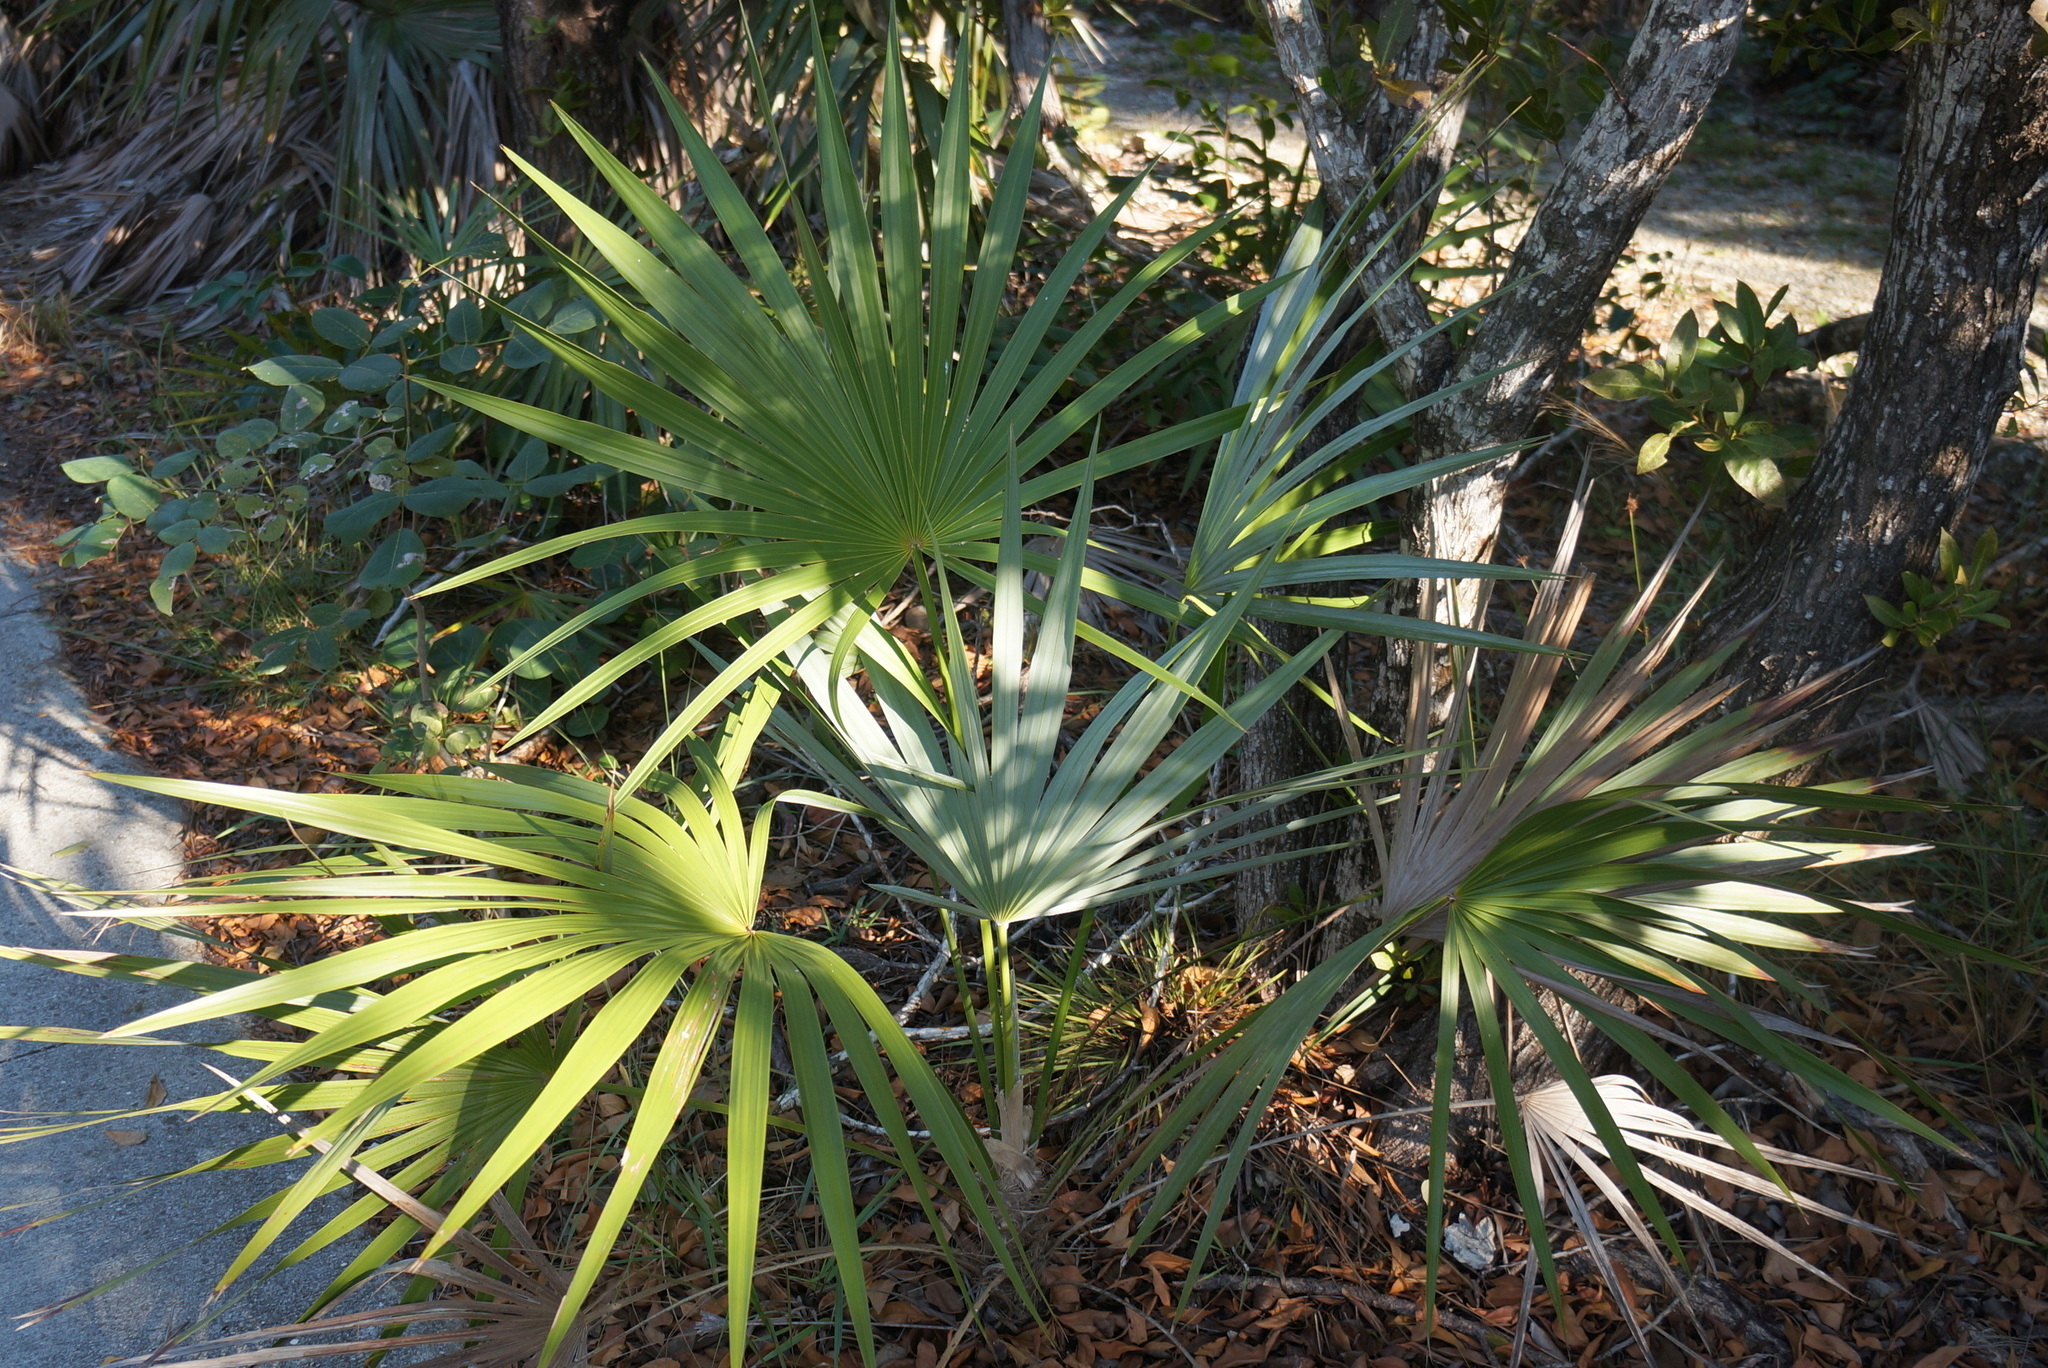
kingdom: Plantae
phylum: Tracheophyta
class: Liliopsida
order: Arecales
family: Arecaceae
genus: Leucothrinax
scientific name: Leucothrinax morrisii
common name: Key palm
